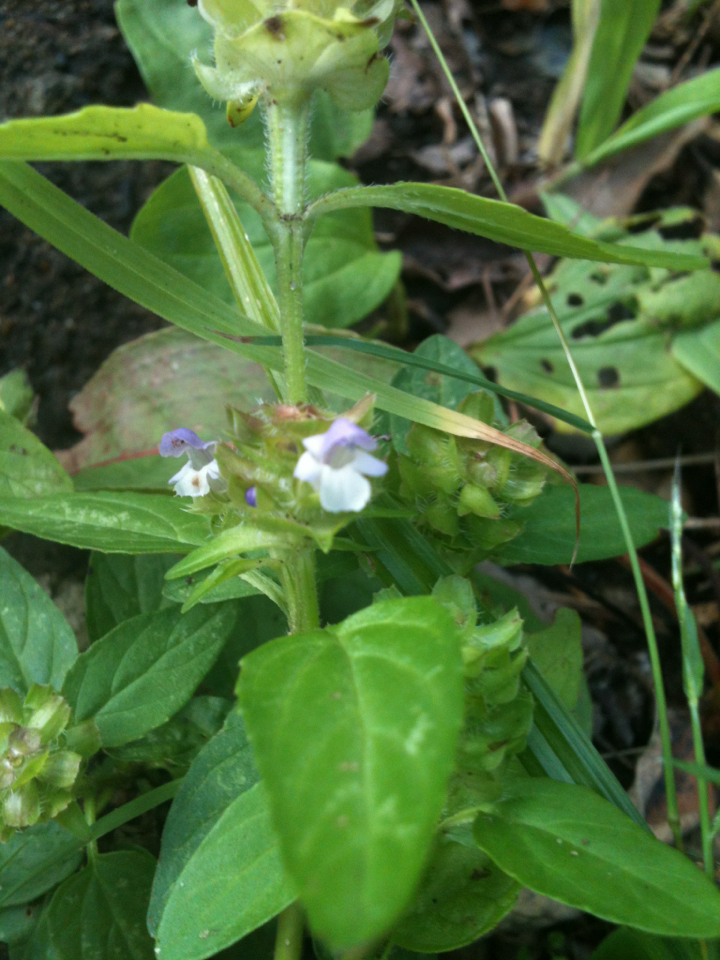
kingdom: Plantae
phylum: Tracheophyta
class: Magnoliopsida
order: Lamiales
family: Lamiaceae
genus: Prunella
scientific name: Prunella vulgaris
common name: Heal-all
